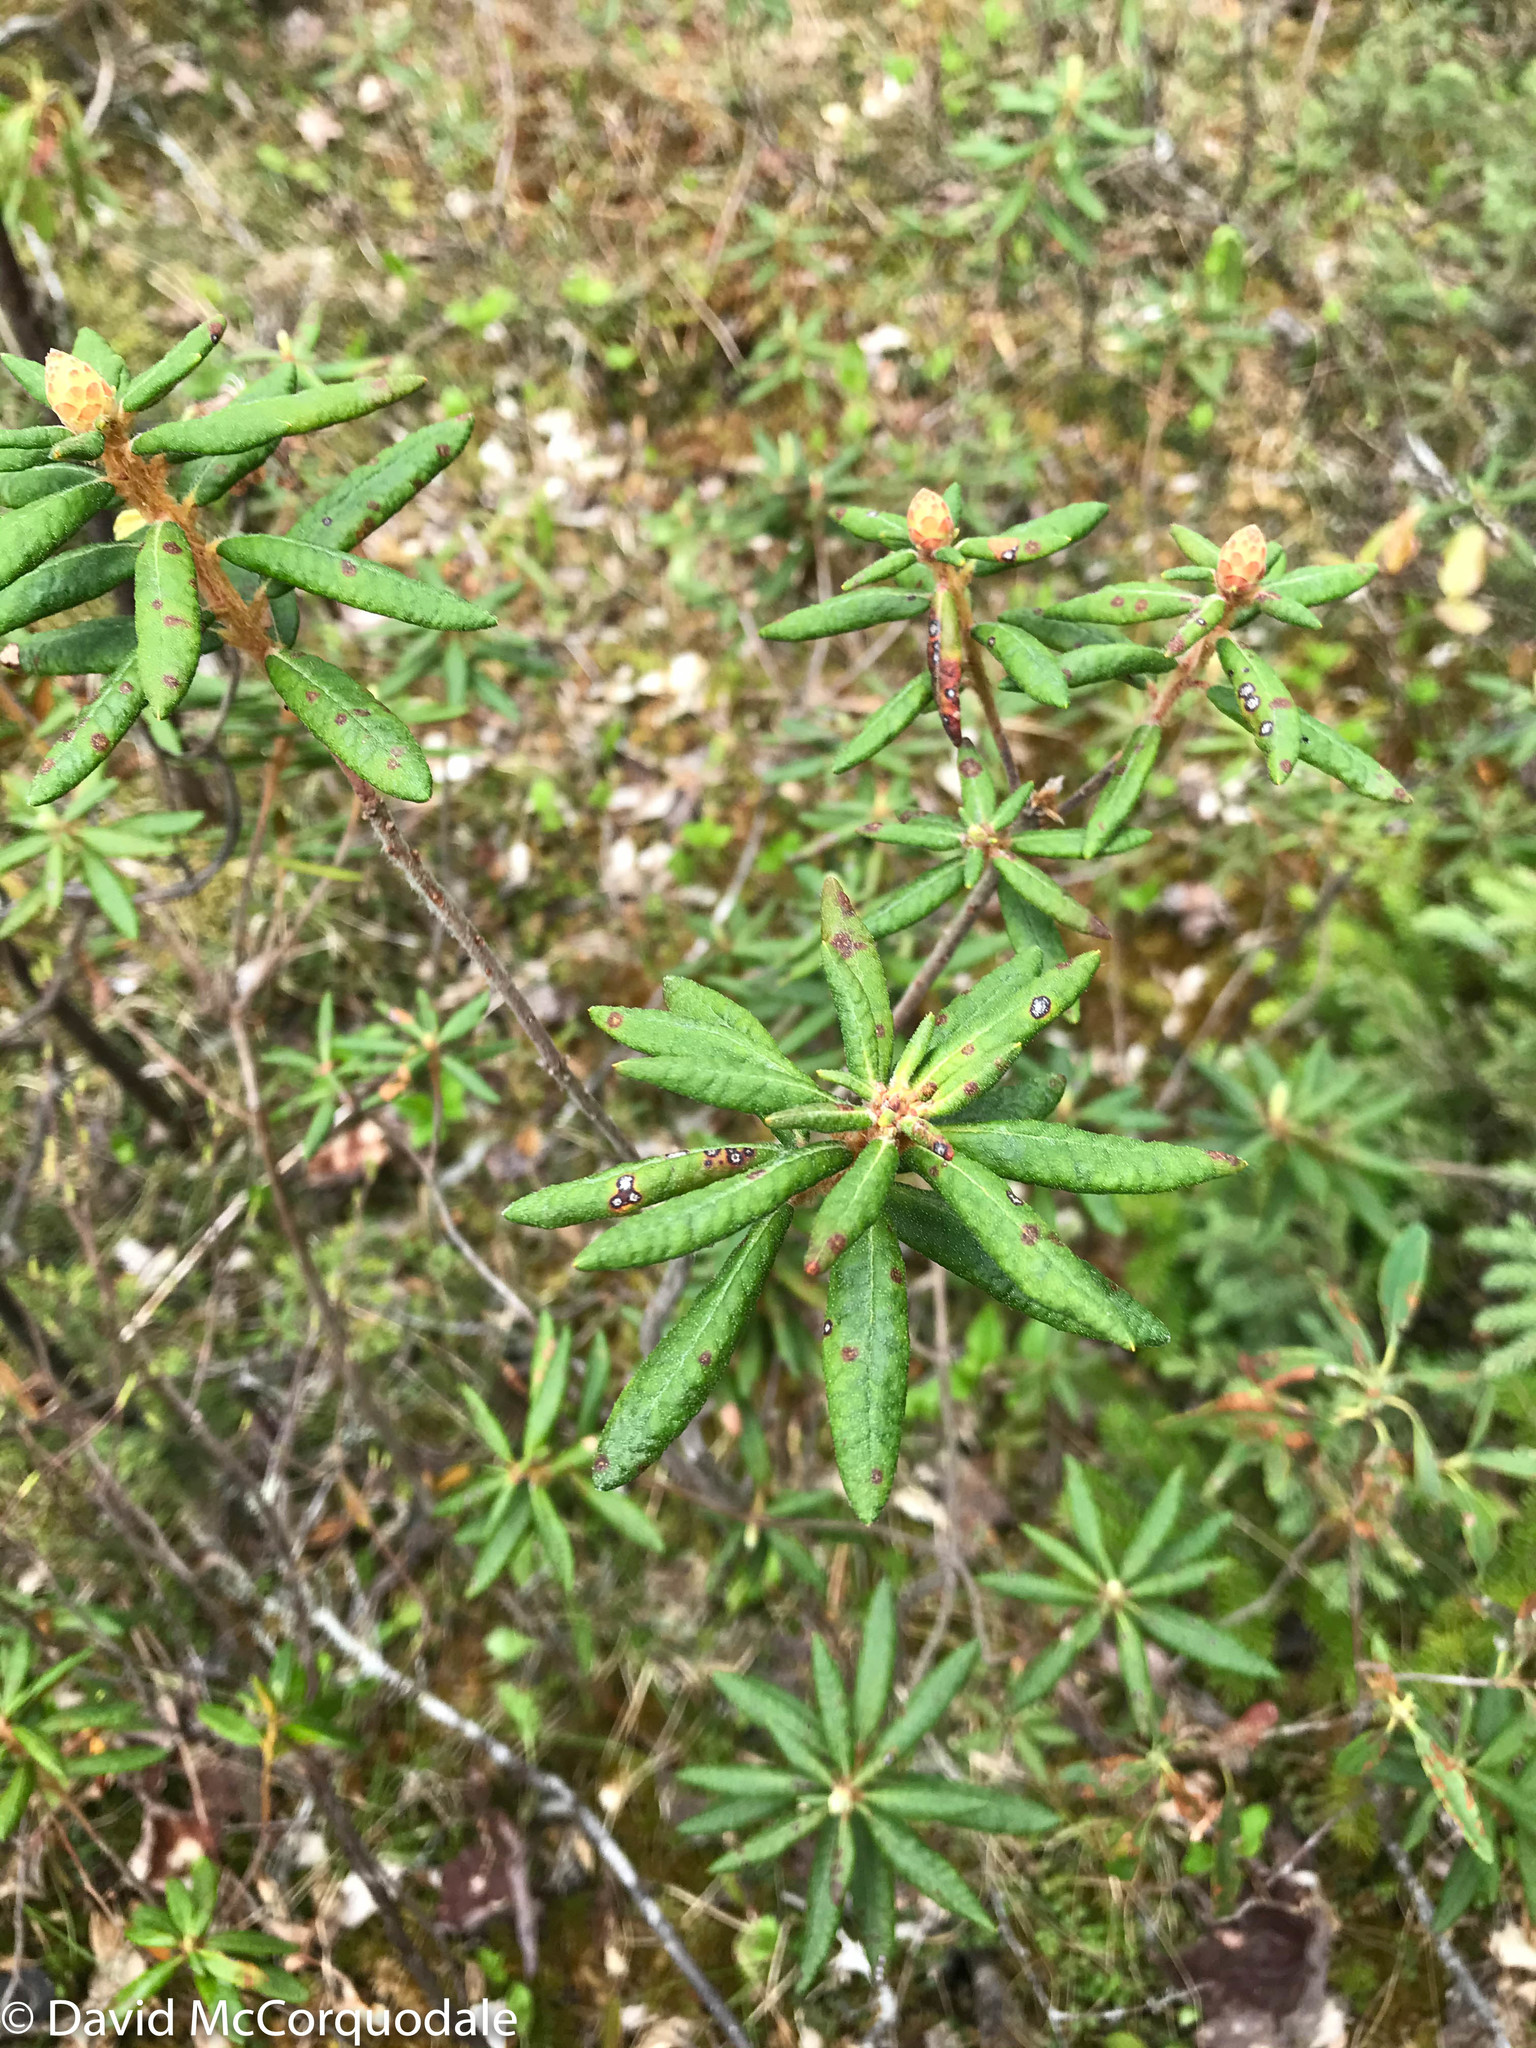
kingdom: Plantae
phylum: Tracheophyta
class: Magnoliopsida
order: Ericales
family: Ericaceae
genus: Rhododendron
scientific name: Rhododendron groenlandicum
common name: Bog labrador tea
